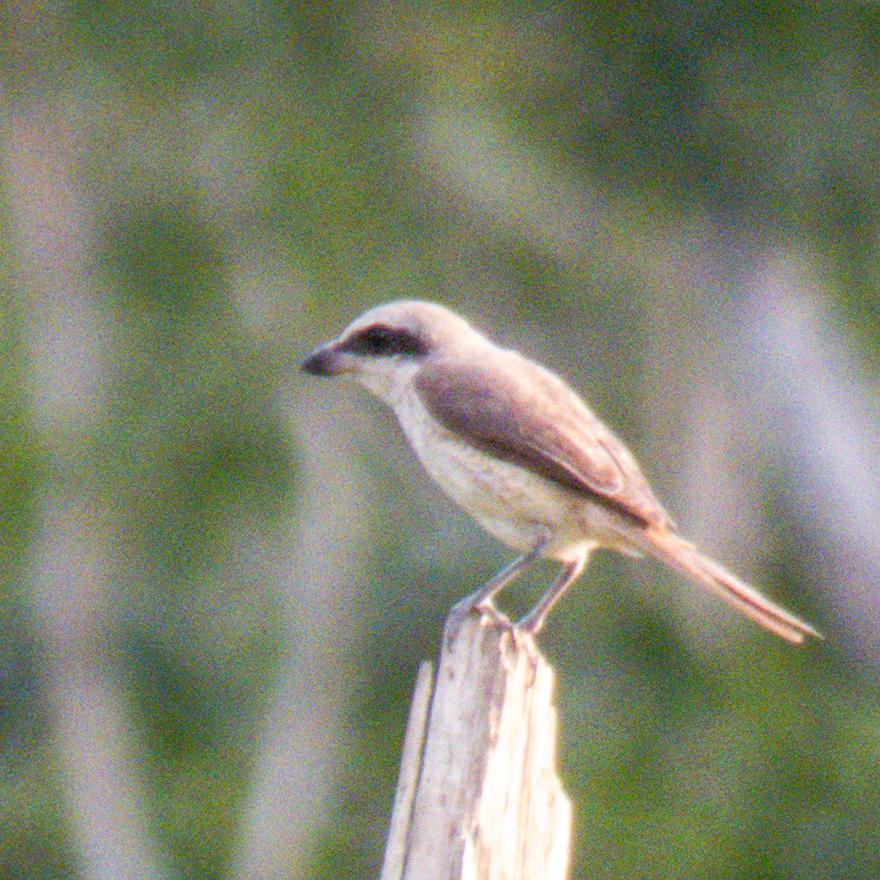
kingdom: Animalia
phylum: Chordata
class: Aves
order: Passeriformes
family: Laniidae
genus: Lanius
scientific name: Lanius cristatus
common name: Brown shrike
